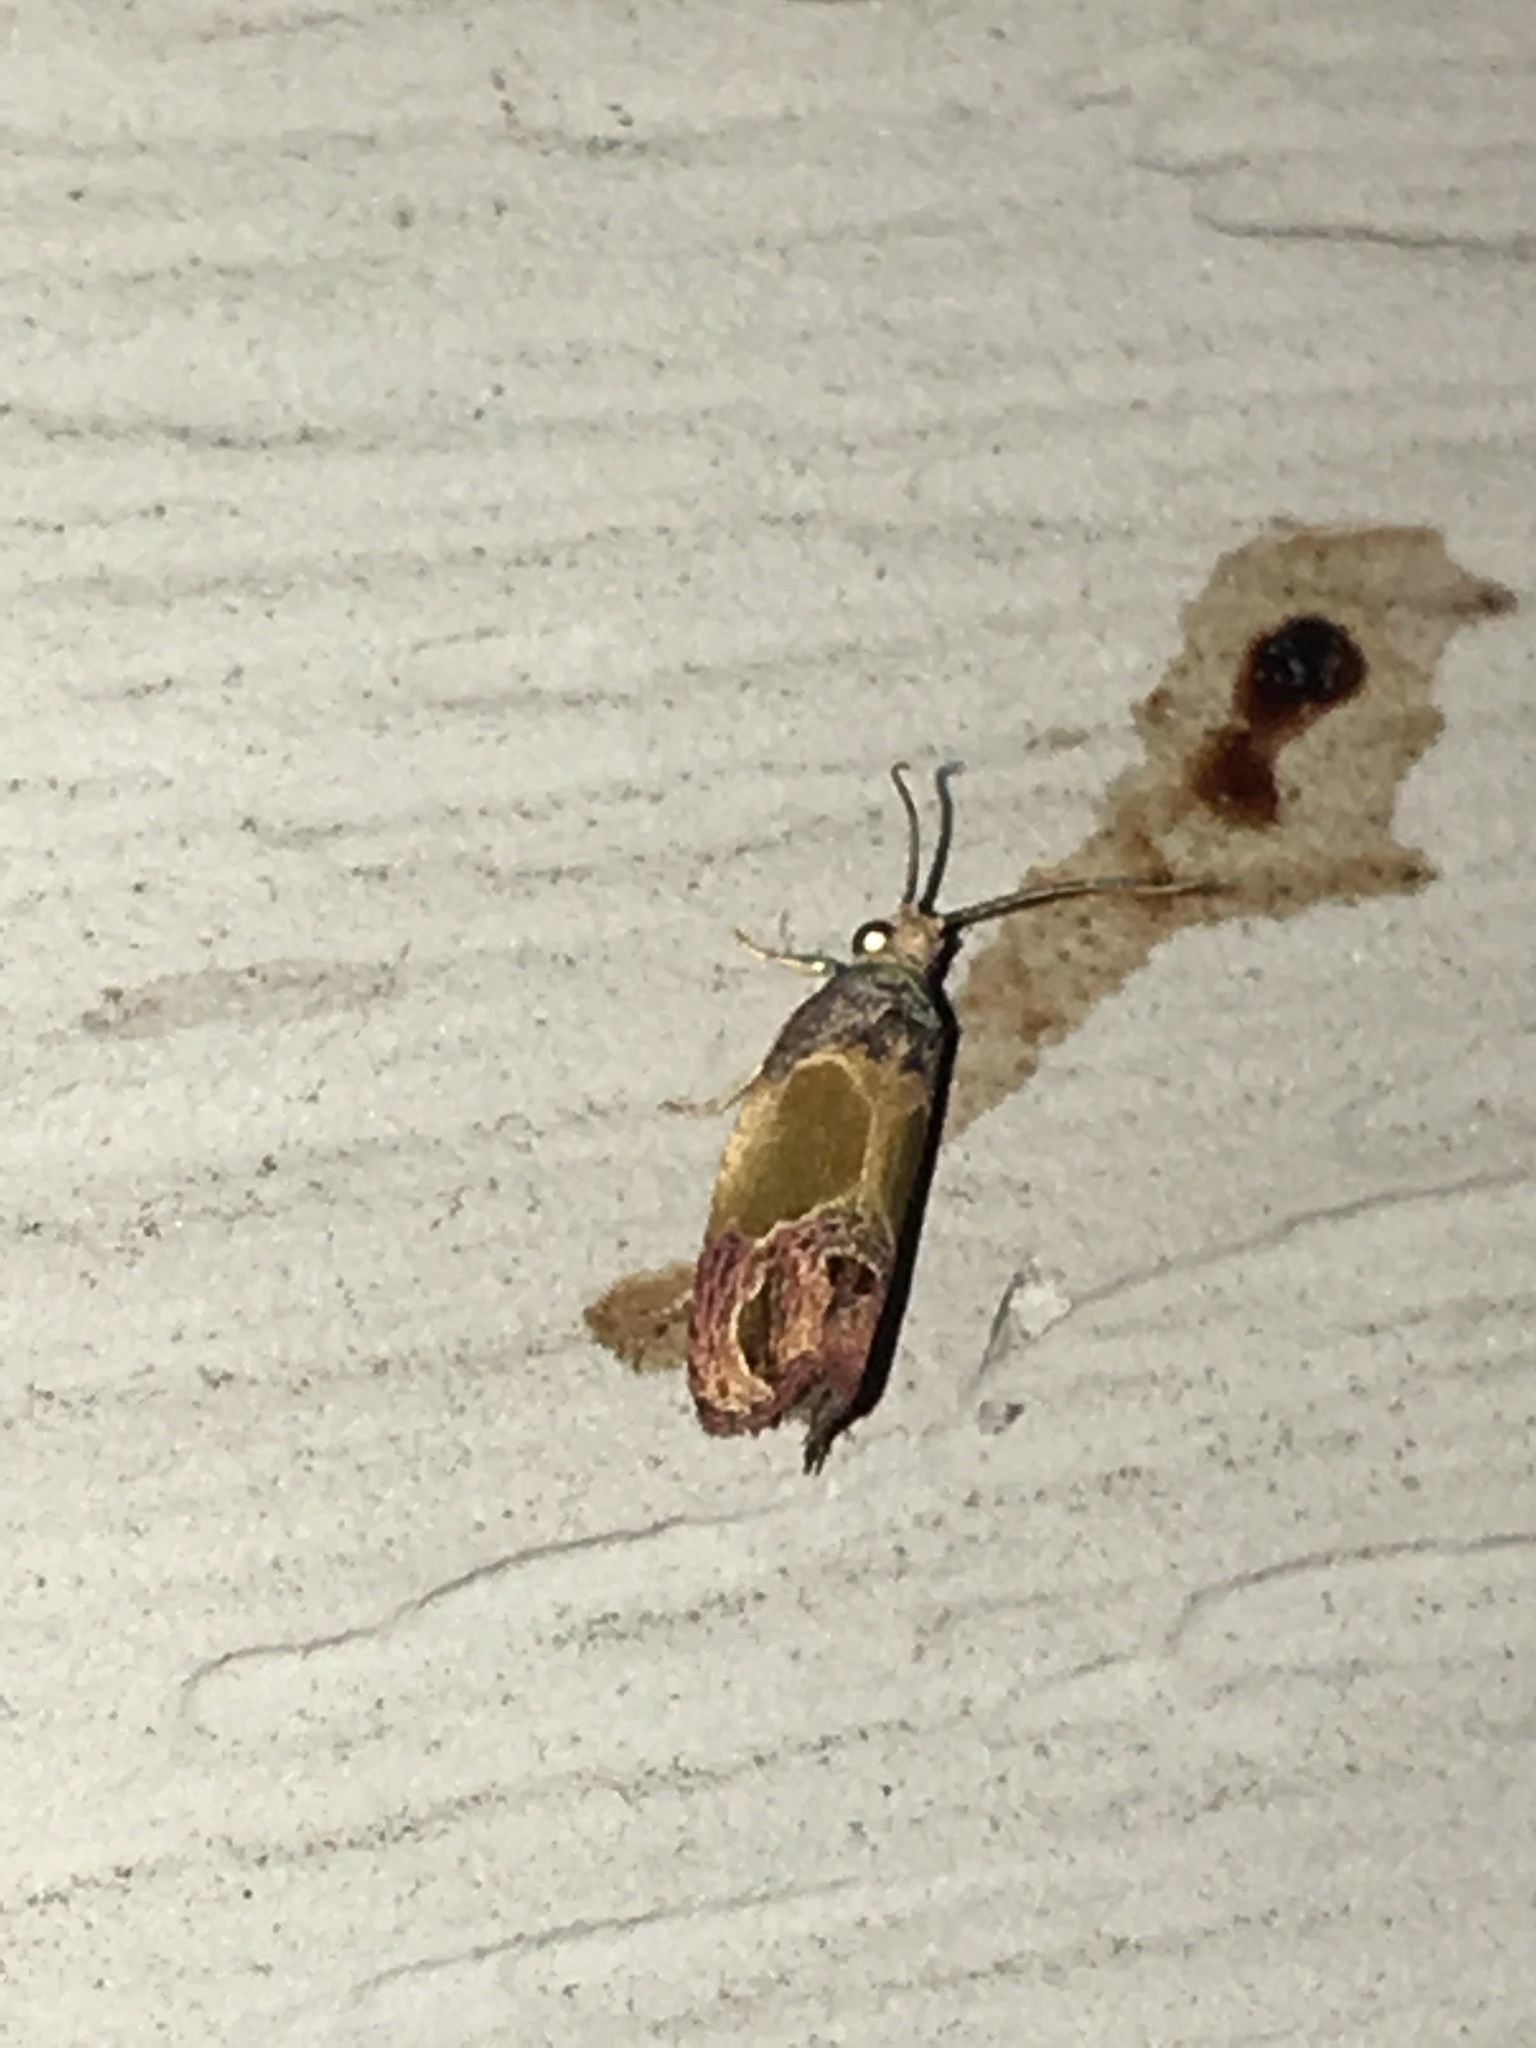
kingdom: Animalia
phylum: Arthropoda
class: Insecta
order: Lepidoptera
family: Tortricidae
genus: Eumarozia
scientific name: Eumarozia malachitana
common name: Sculptured moth
